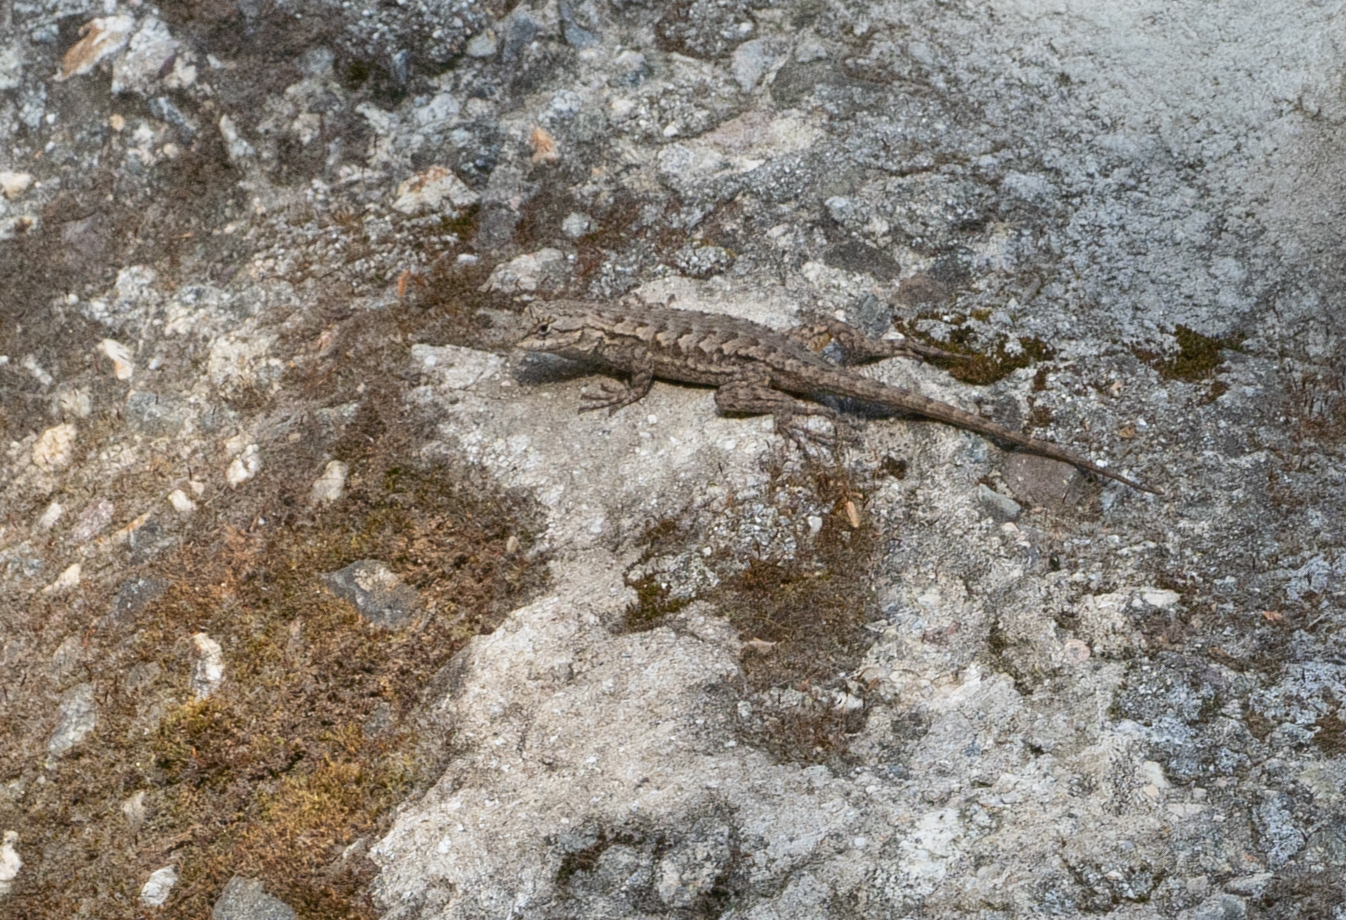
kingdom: Animalia
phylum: Chordata
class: Squamata
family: Phrynosomatidae
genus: Sceloporus
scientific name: Sceloporus occidentalis
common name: Western fence lizard
